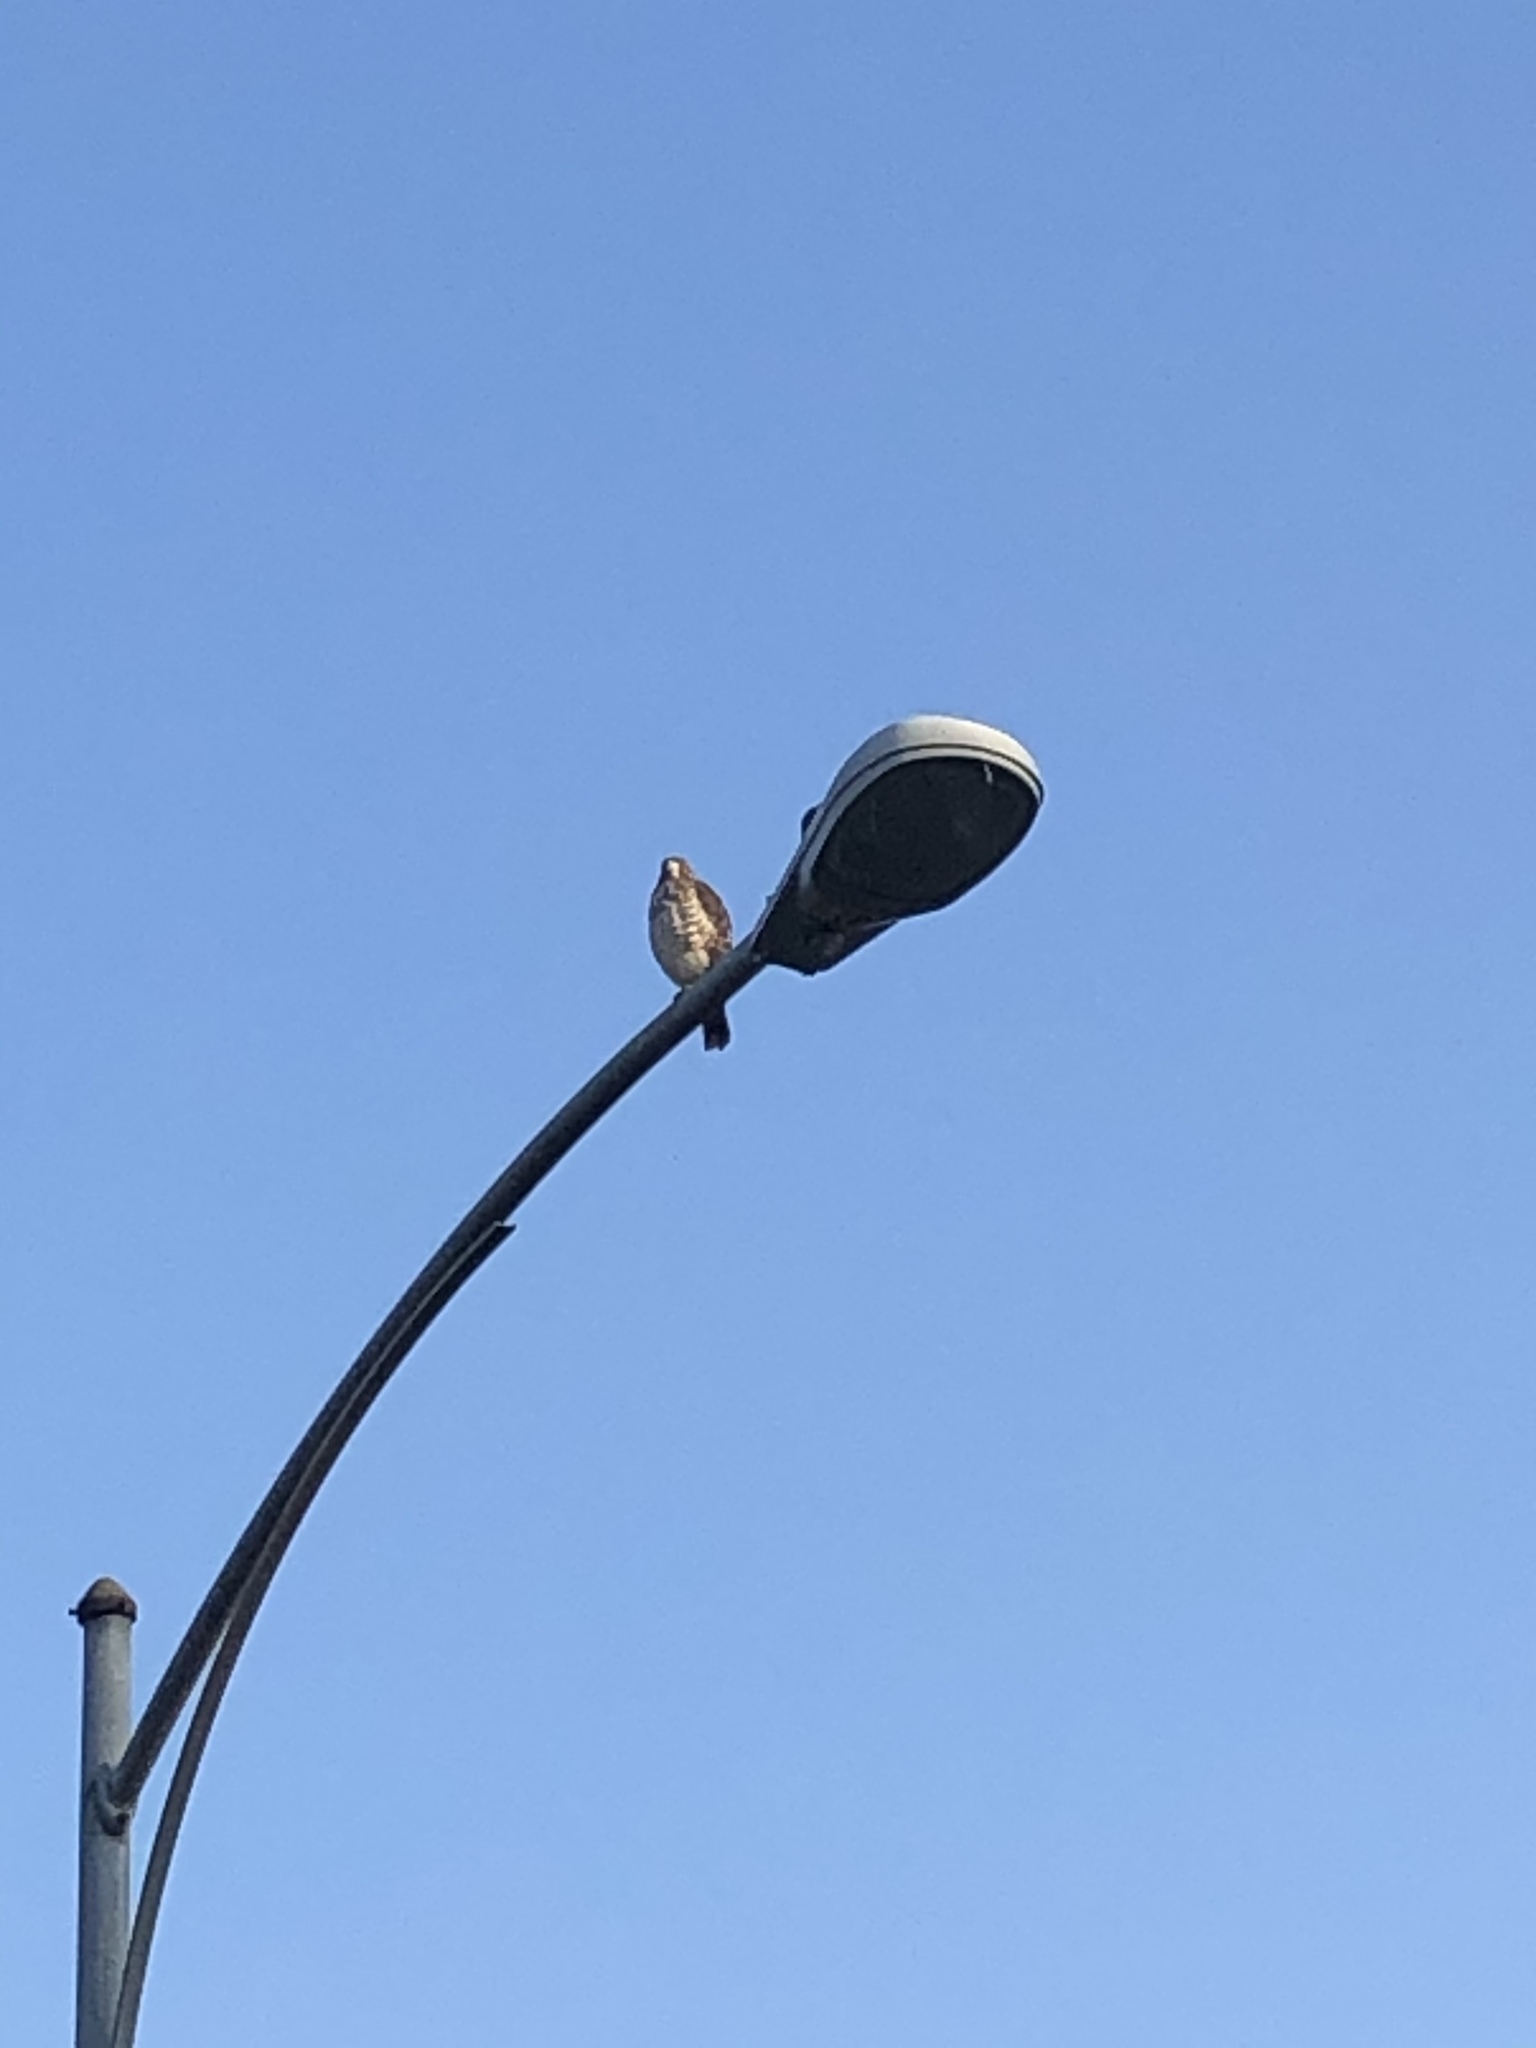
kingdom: Animalia
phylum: Chordata
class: Aves
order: Accipitriformes
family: Accipitridae
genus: Buteo
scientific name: Buteo platypterus
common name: Broad-winged hawk
